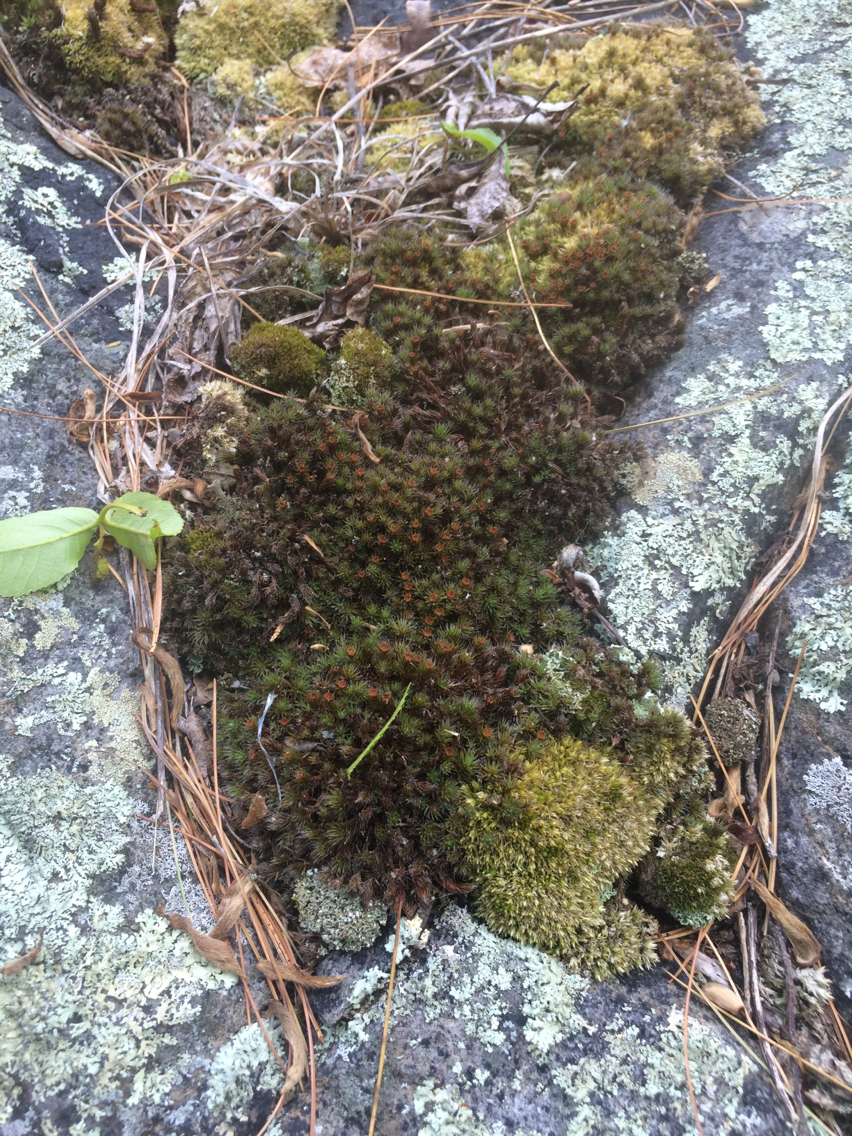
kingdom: Plantae
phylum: Bryophyta
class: Polytrichopsida
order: Polytrichales
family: Polytrichaceae
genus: Polytrichum
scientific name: Polytrichum piliferum
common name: Bristly haircap
